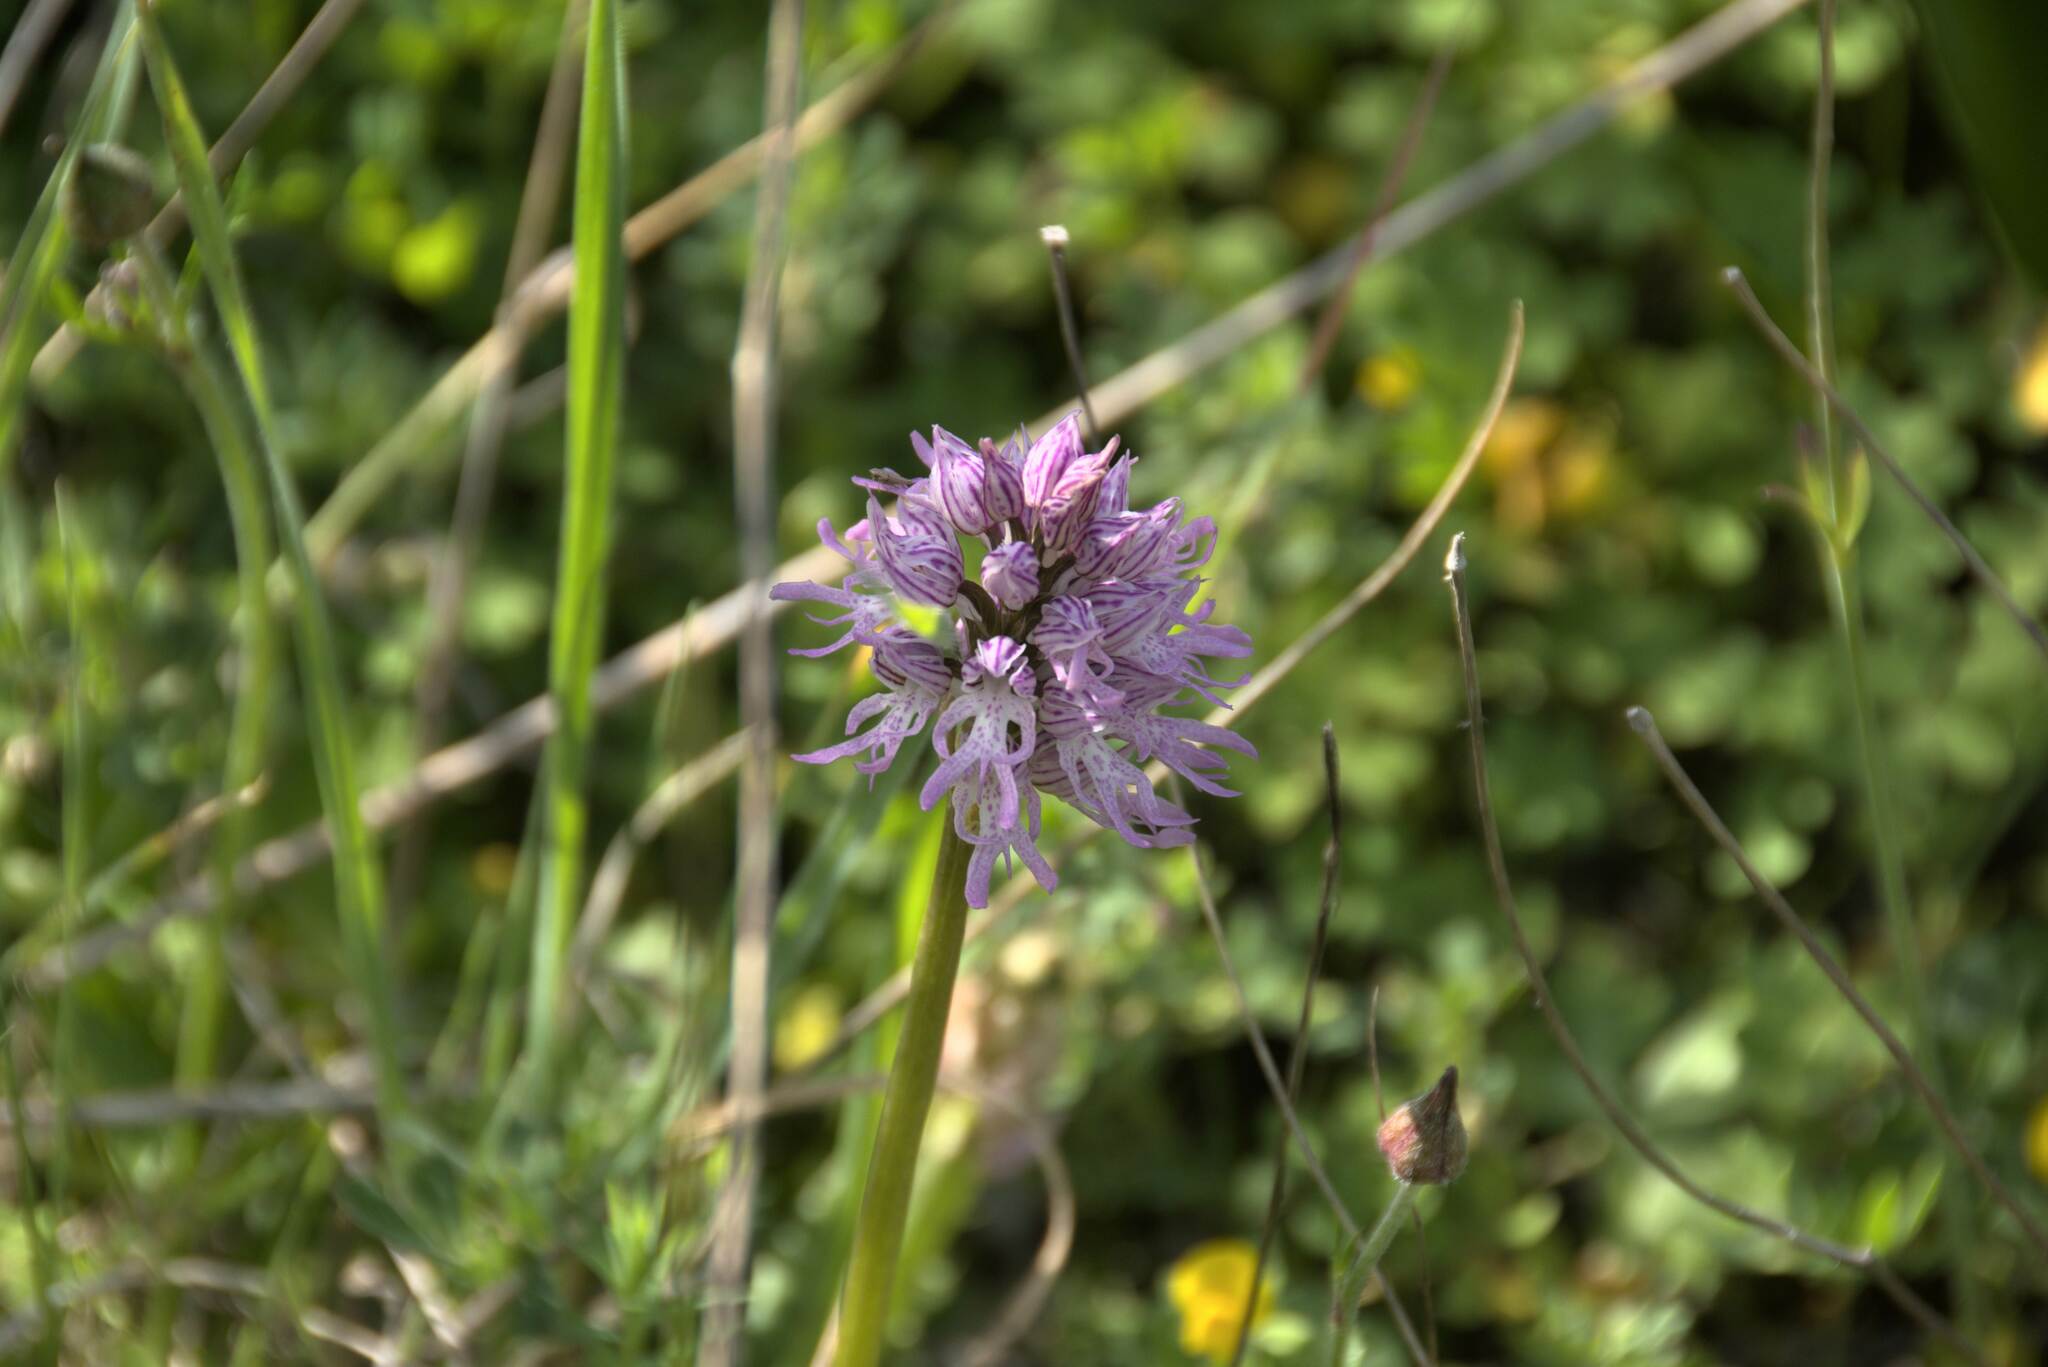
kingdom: Plantae
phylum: Tracheophyta
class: Liliopsida
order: Asparagales
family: Orchidaceae
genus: Orchis
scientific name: Orchis italica
